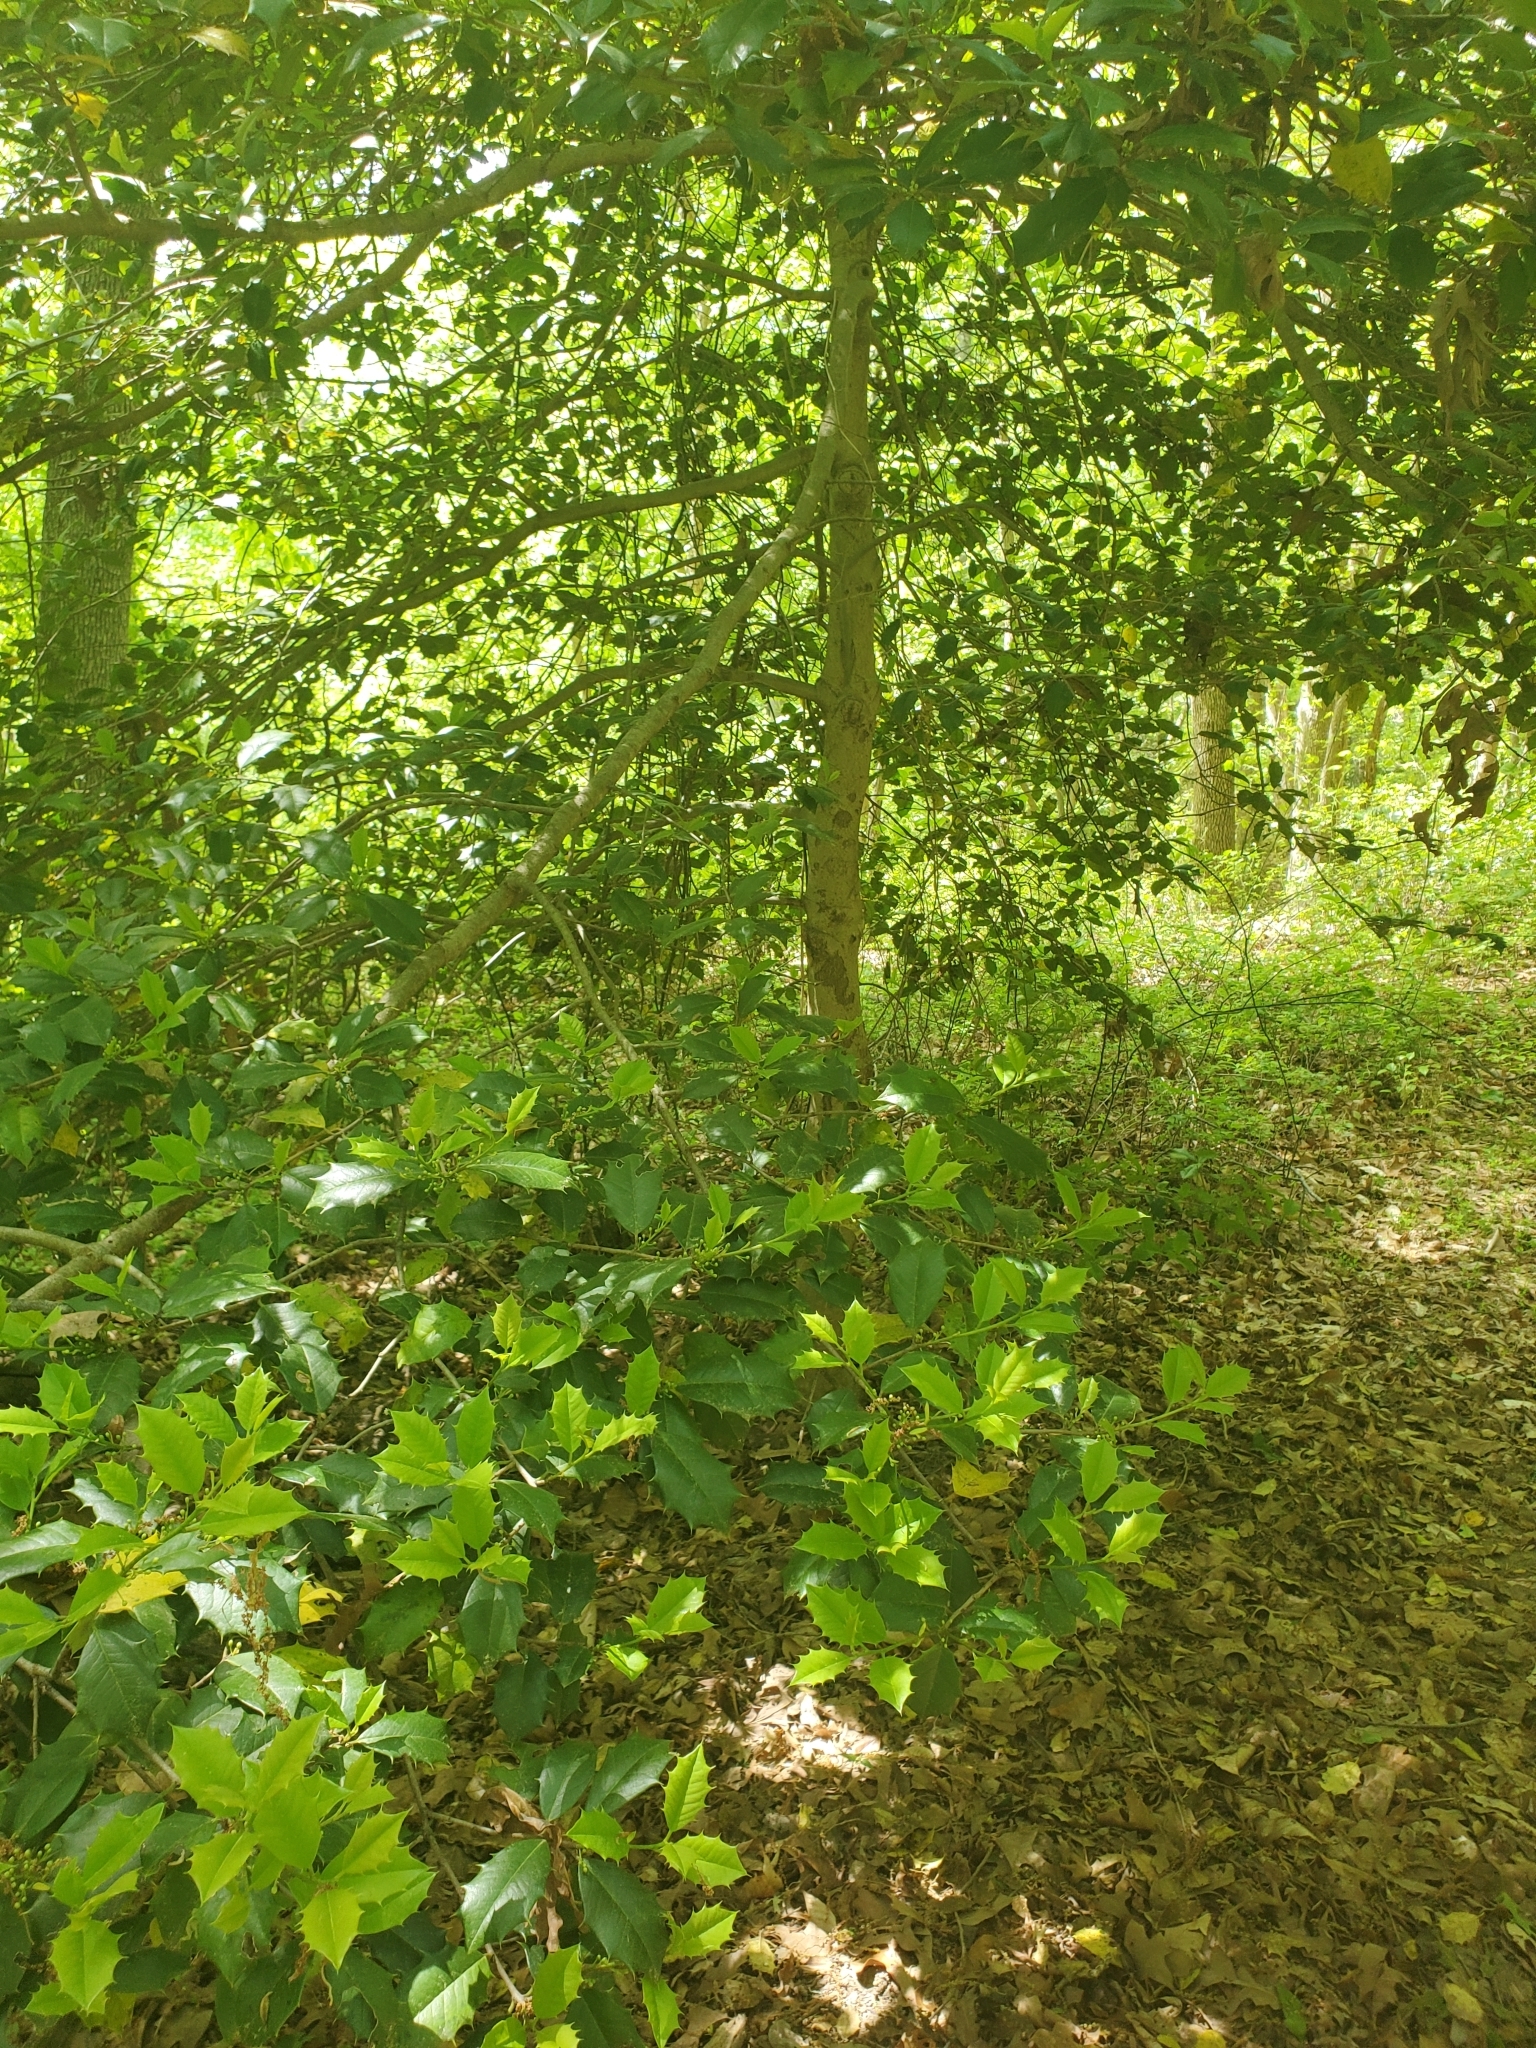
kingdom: Plantae
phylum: Tracheophyta
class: Magnoliopsida
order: Aquifoliales
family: Aquifoliaceae
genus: Ilex
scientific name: Ilex opaca
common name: American holly
